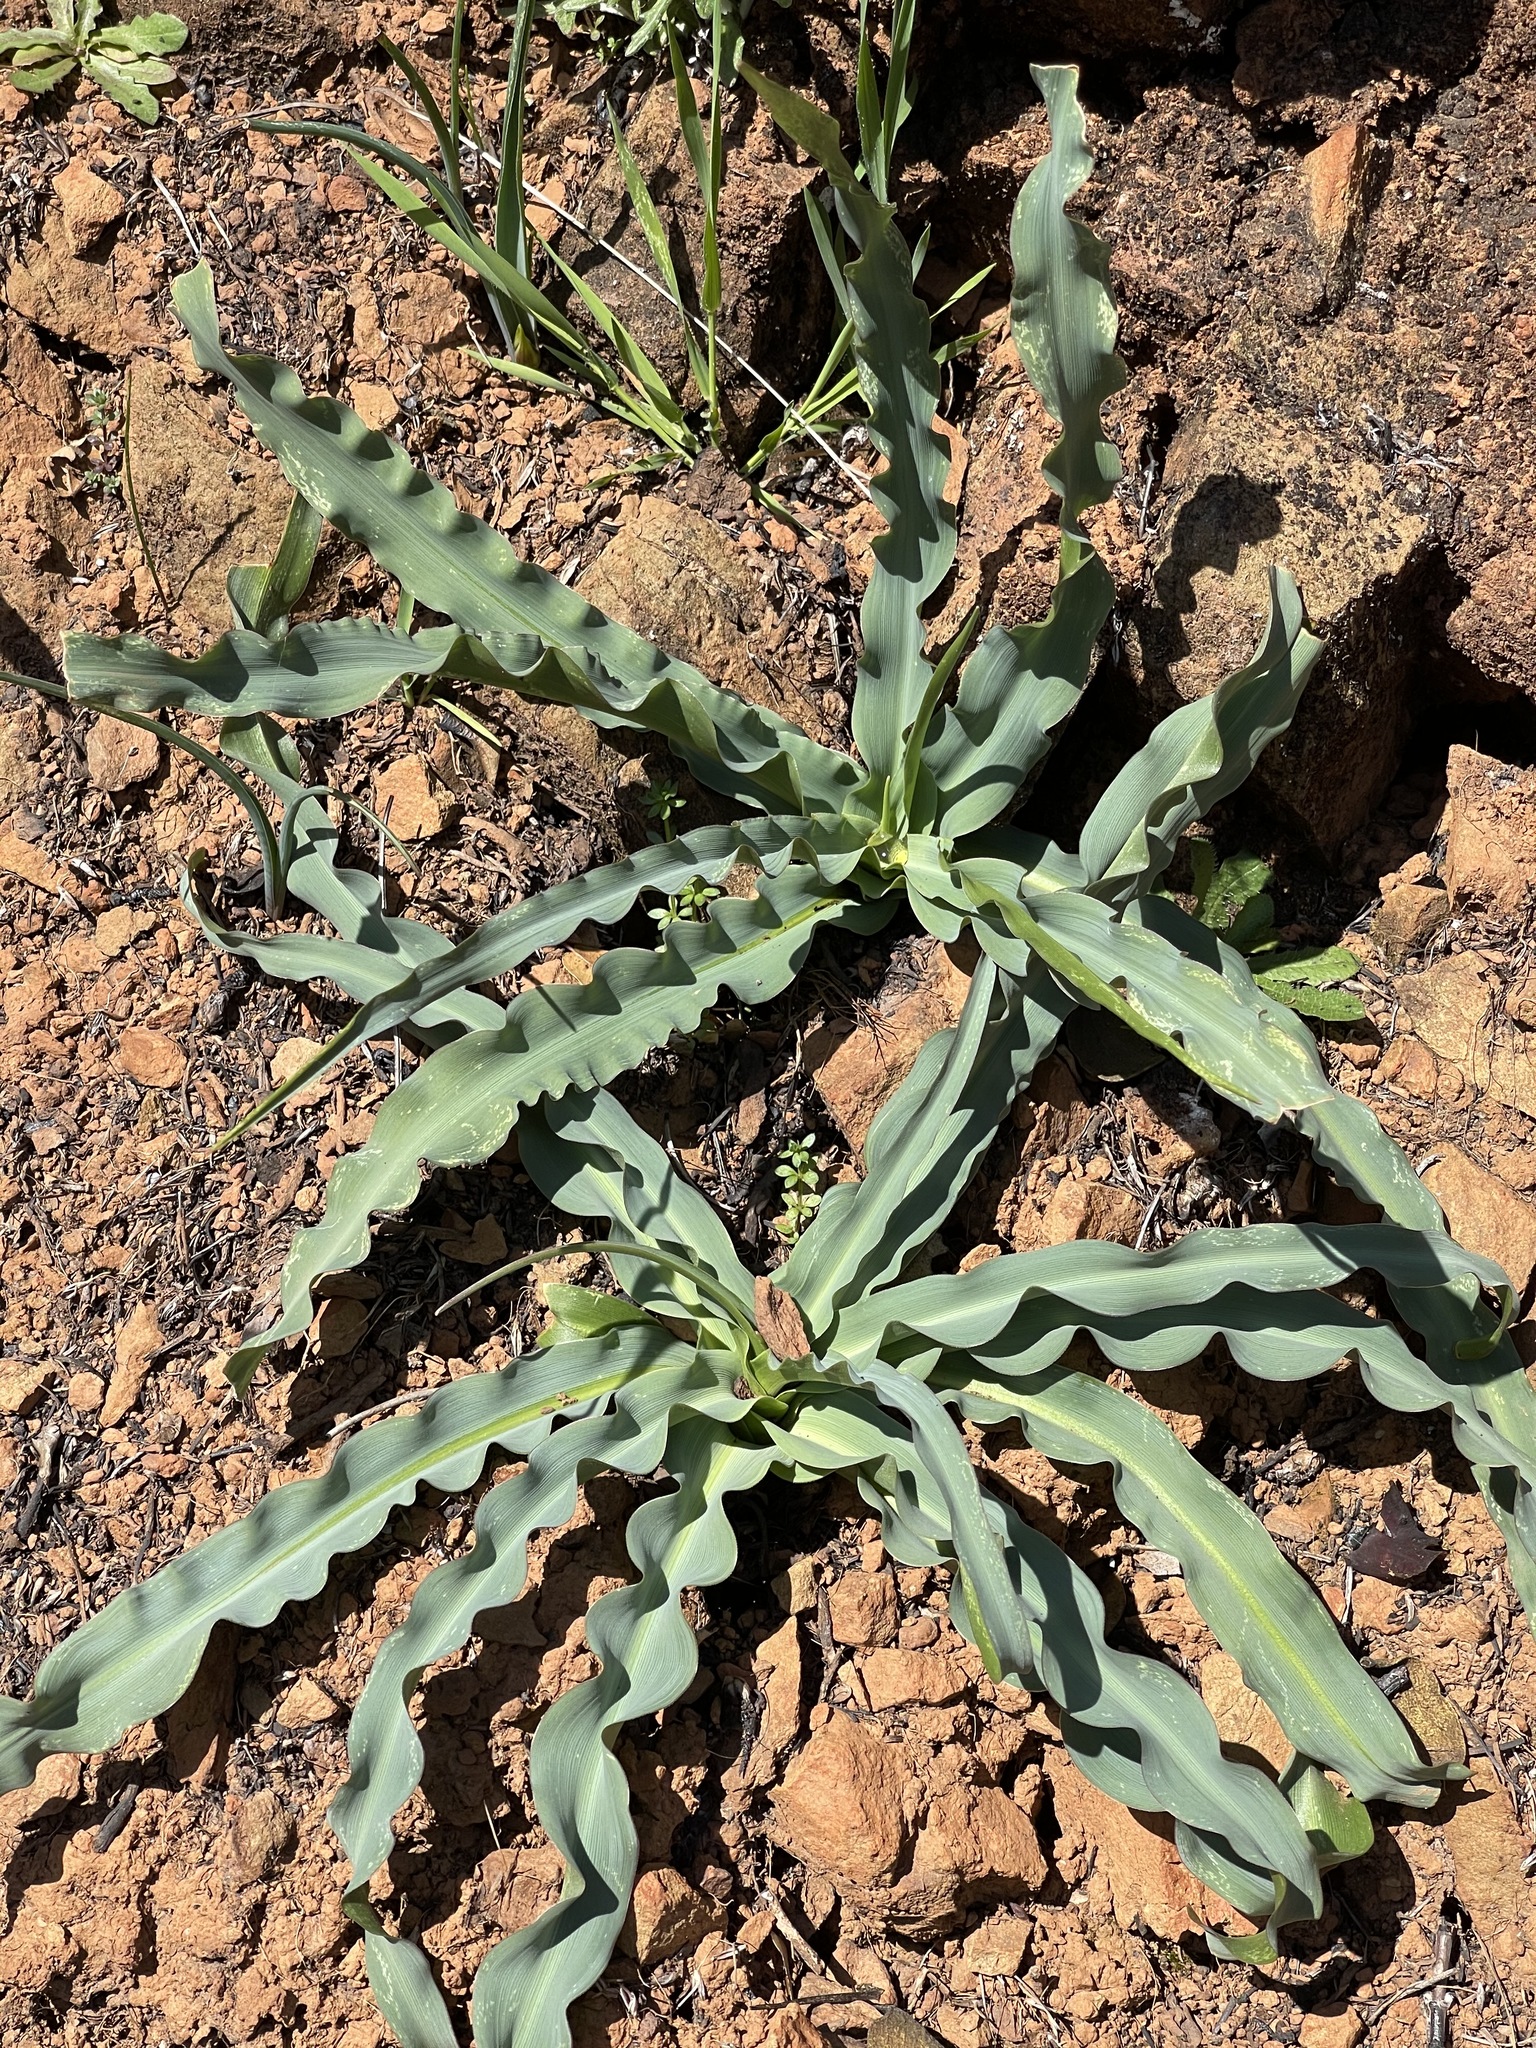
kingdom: Plantae
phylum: Tracheophyta
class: Liliopsida
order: Asparagales
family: Asparagaceae
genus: Chlorogalum
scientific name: Chlorogalum pomeridianum
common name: Amole
